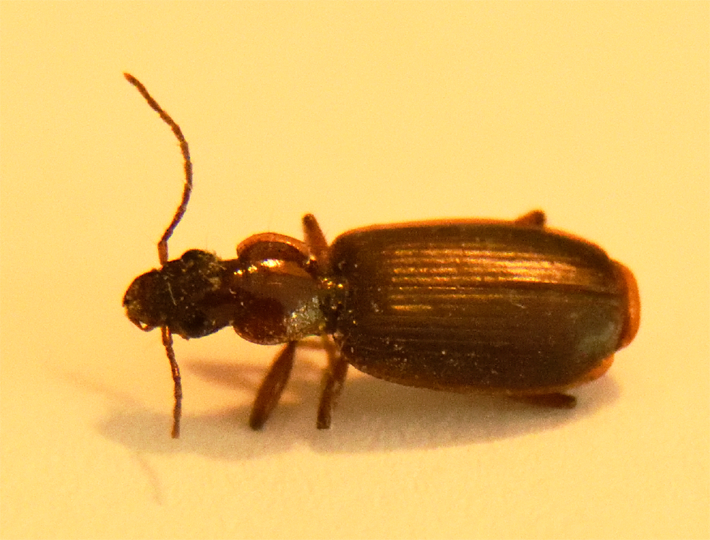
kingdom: Animalia
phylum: Arthropoda
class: Insecta
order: Coleoptera
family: Carabidae
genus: Dromius
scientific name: Dromius piceus
